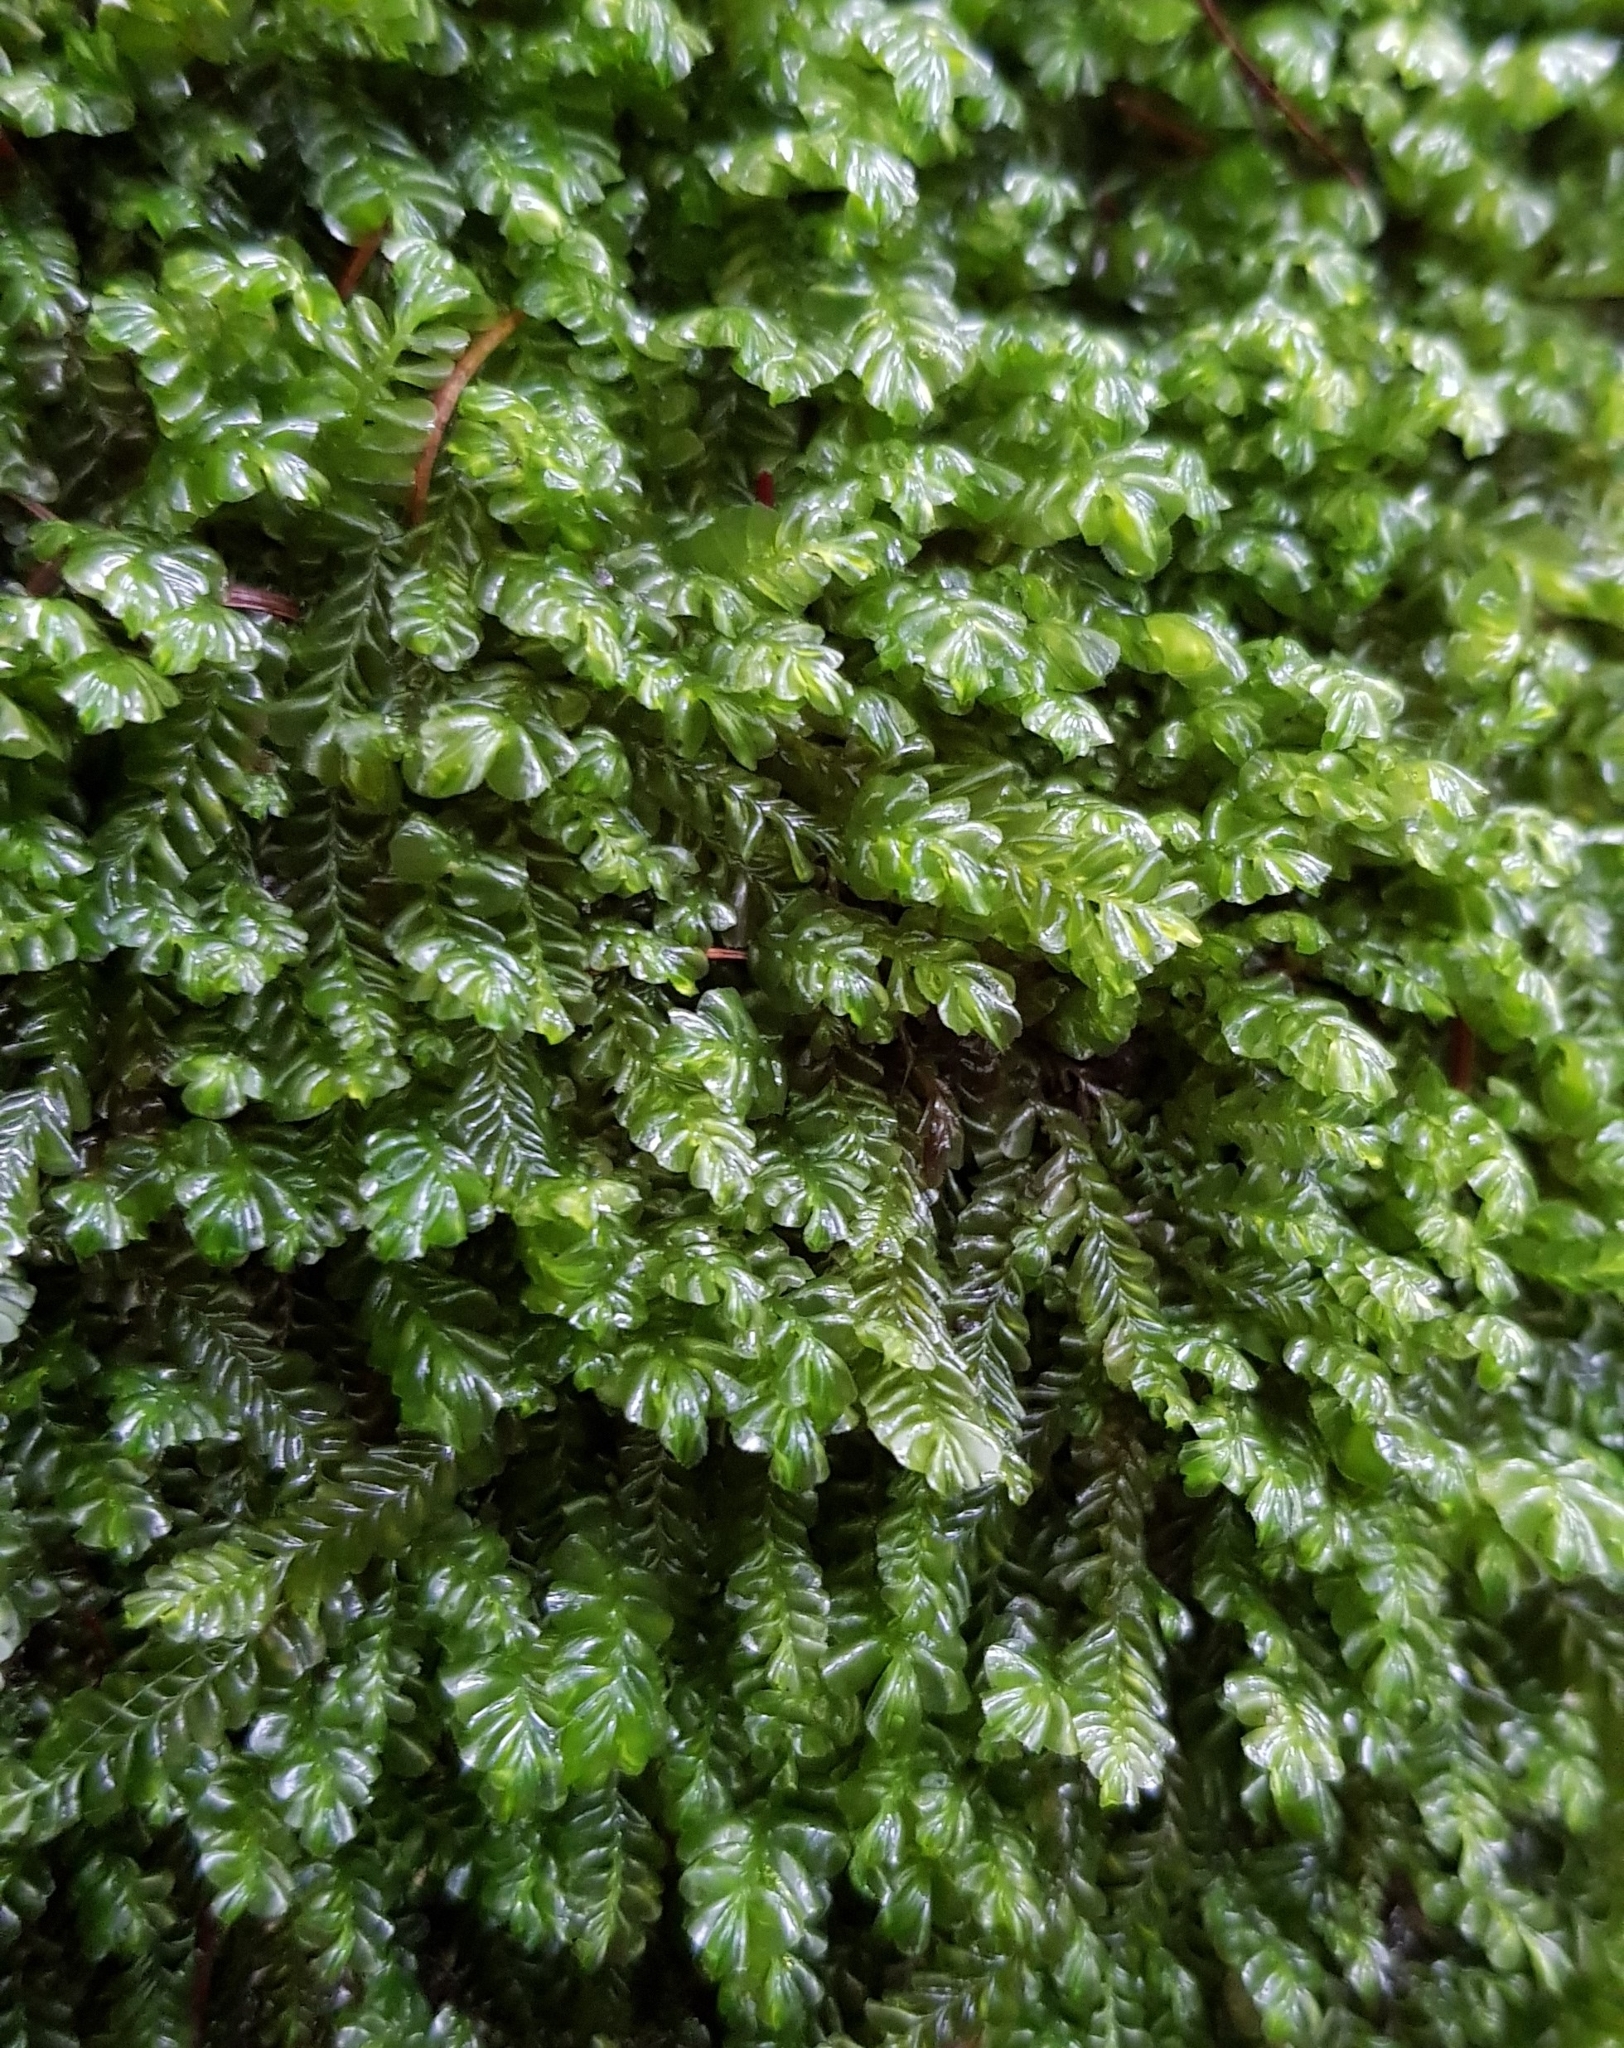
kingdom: Plantae
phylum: Marchantiophyta
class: Jungermanniopsida
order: Jungermanniales
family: Plagiochilaceae
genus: Plagiochila
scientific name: Plagiochila porelloides
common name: Lesser featherwort
